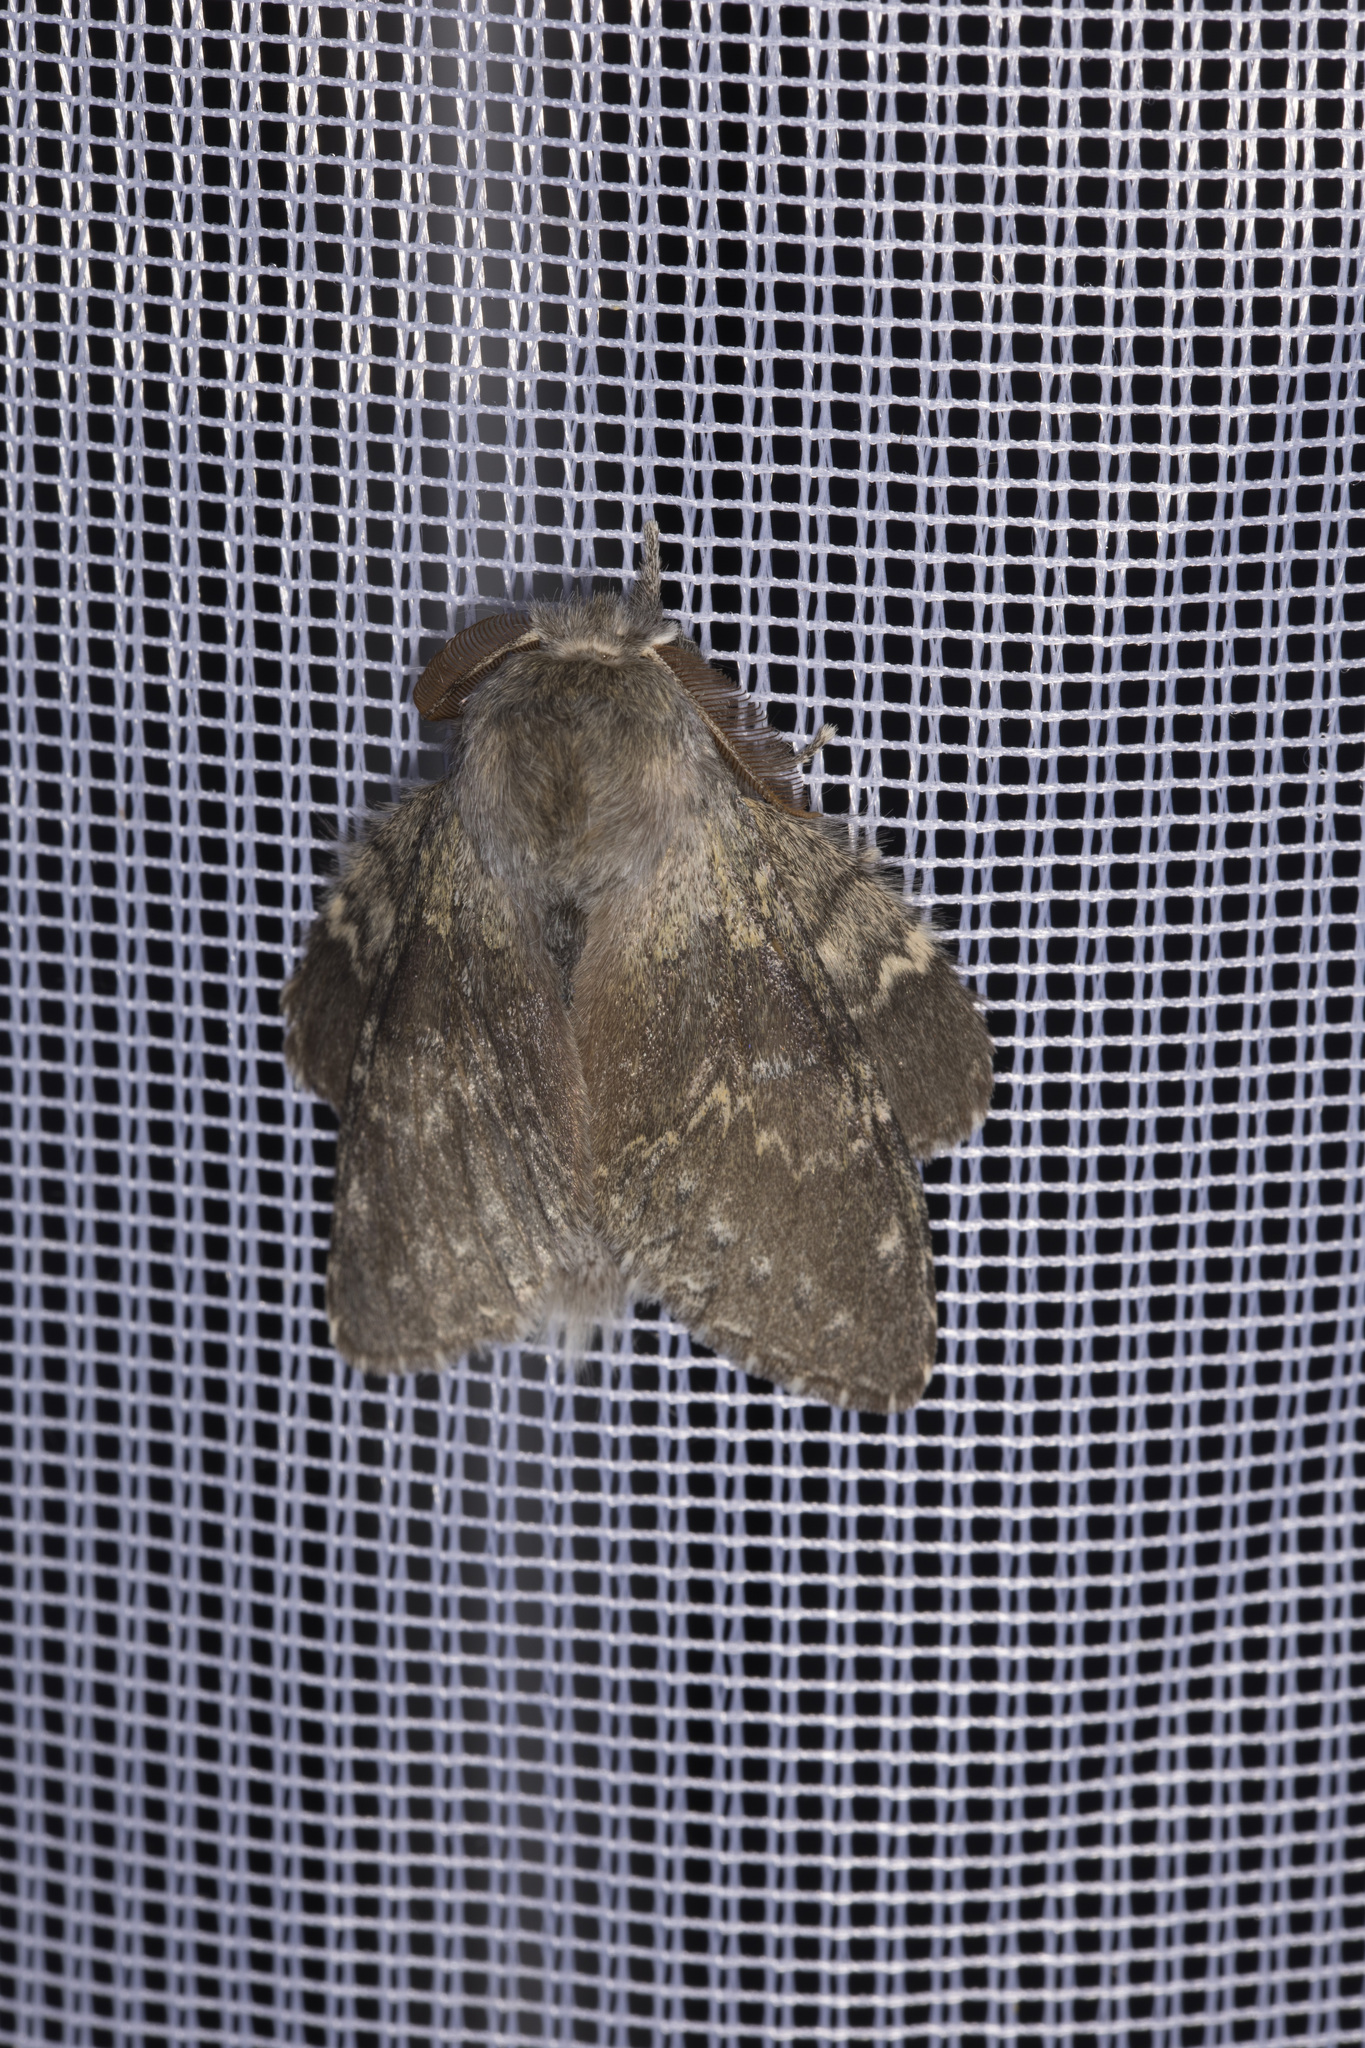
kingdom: Animalia
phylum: Arthropoda
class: Insecta
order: Lepidoptera
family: Notodontidae
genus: Stauropus
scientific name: Stauropus fagi
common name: Lobster moth
